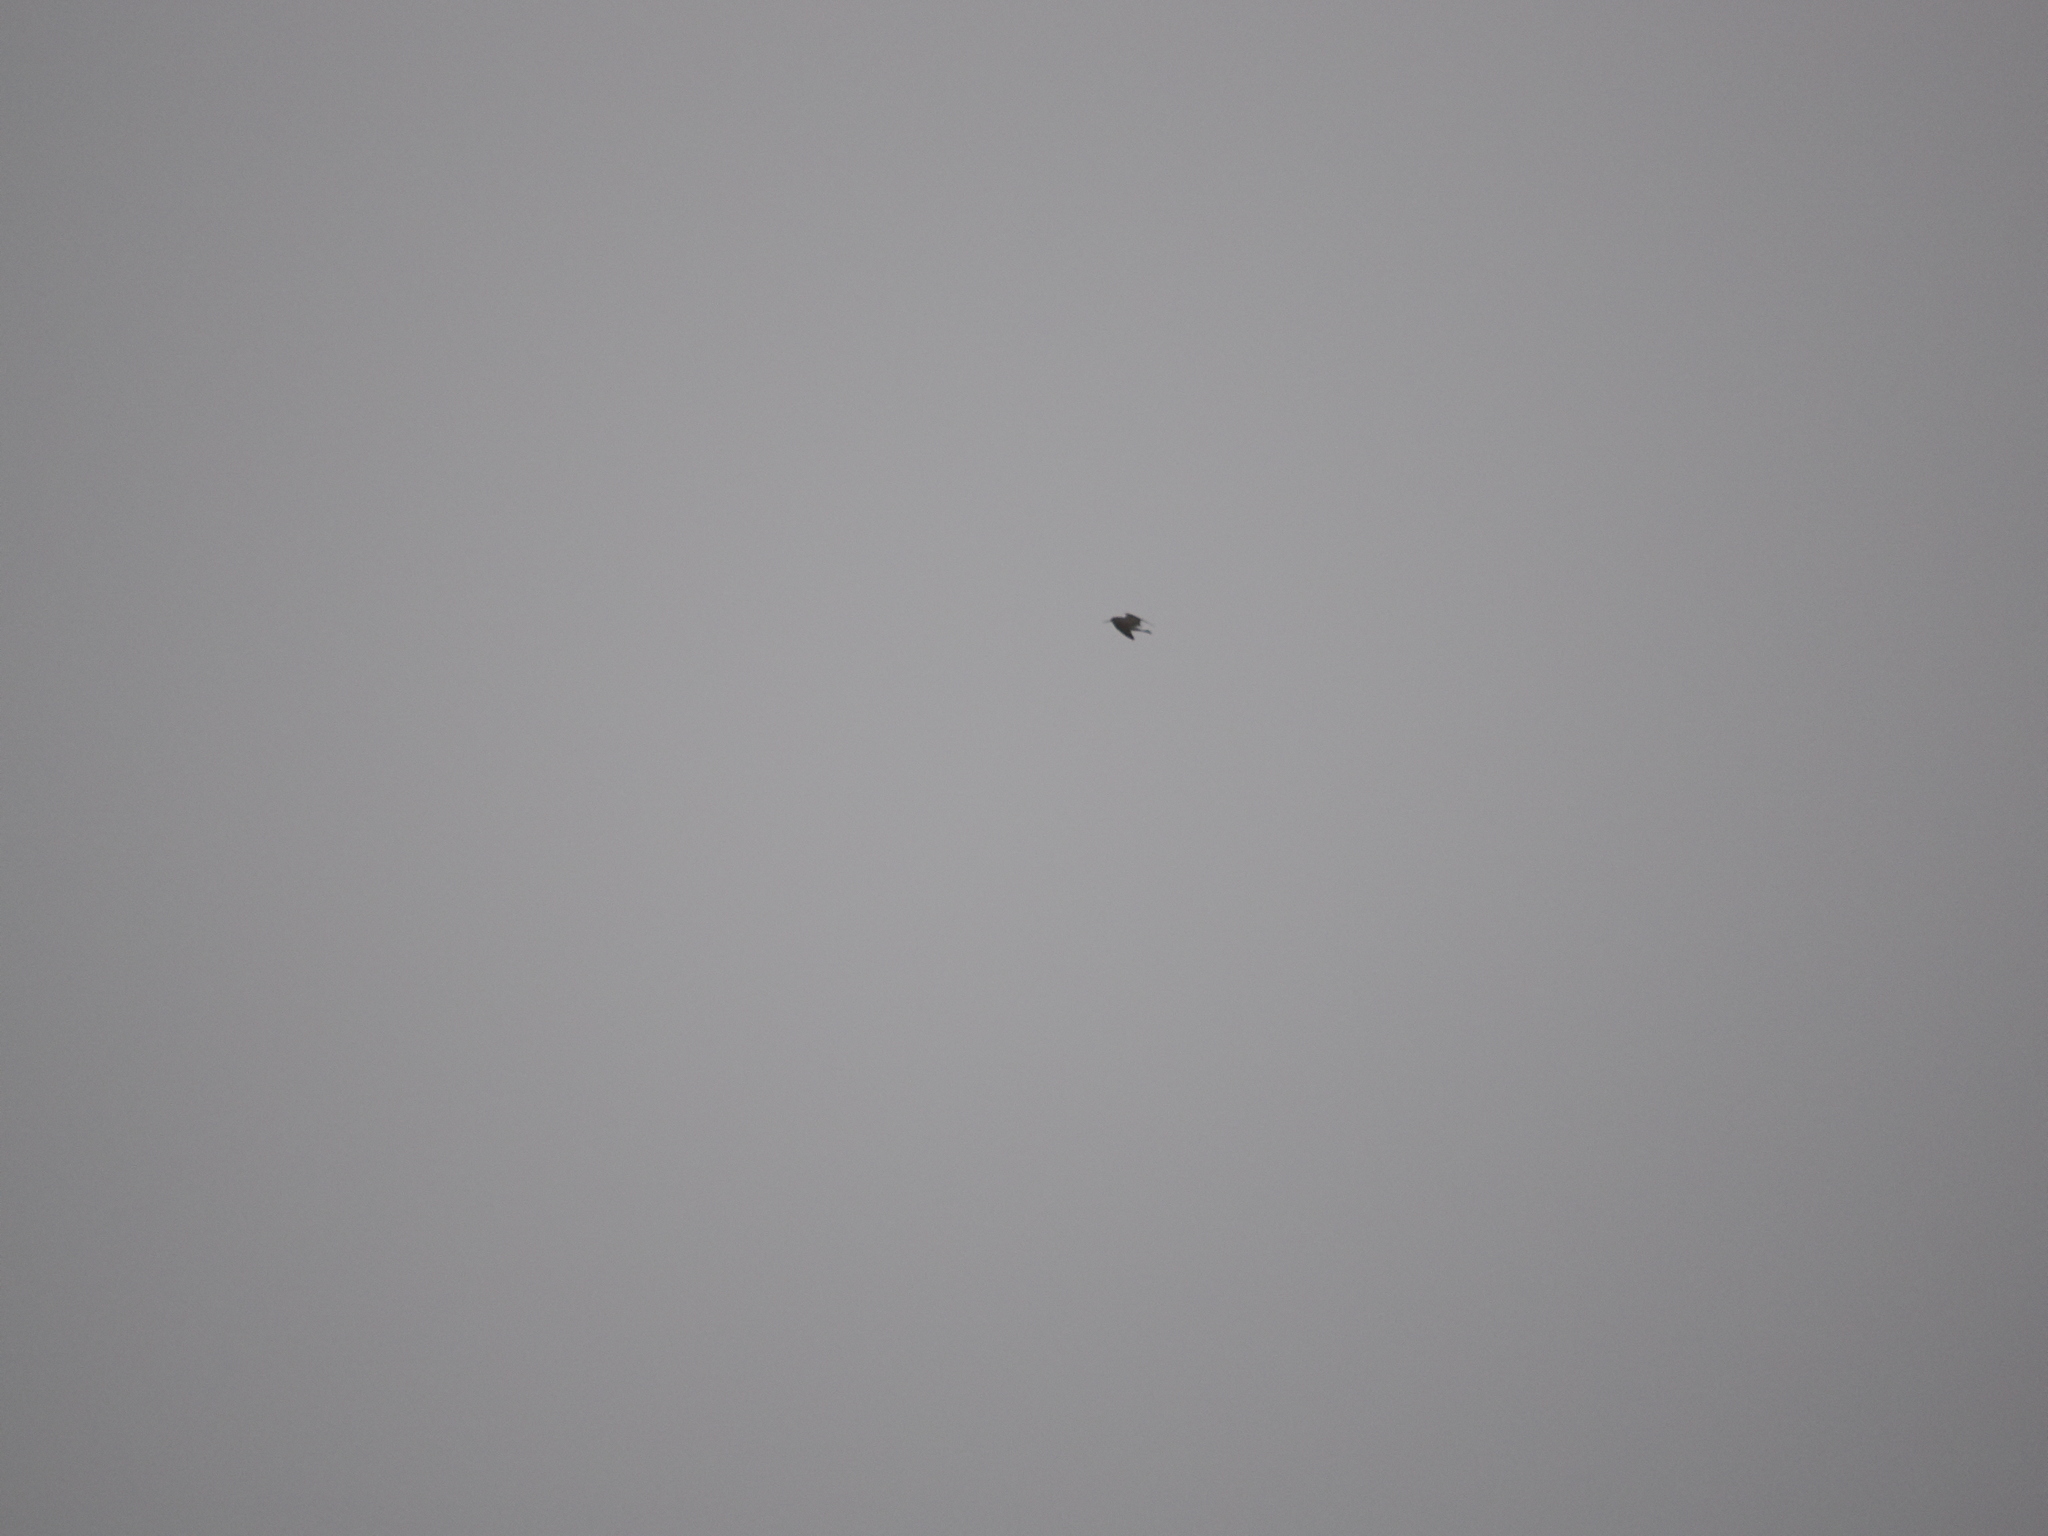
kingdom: Animalia
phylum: Chordata
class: Aves
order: Charadriiformes
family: Scolopacidae
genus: Tringa
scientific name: Tringa ochropus
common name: Green sandpiper
